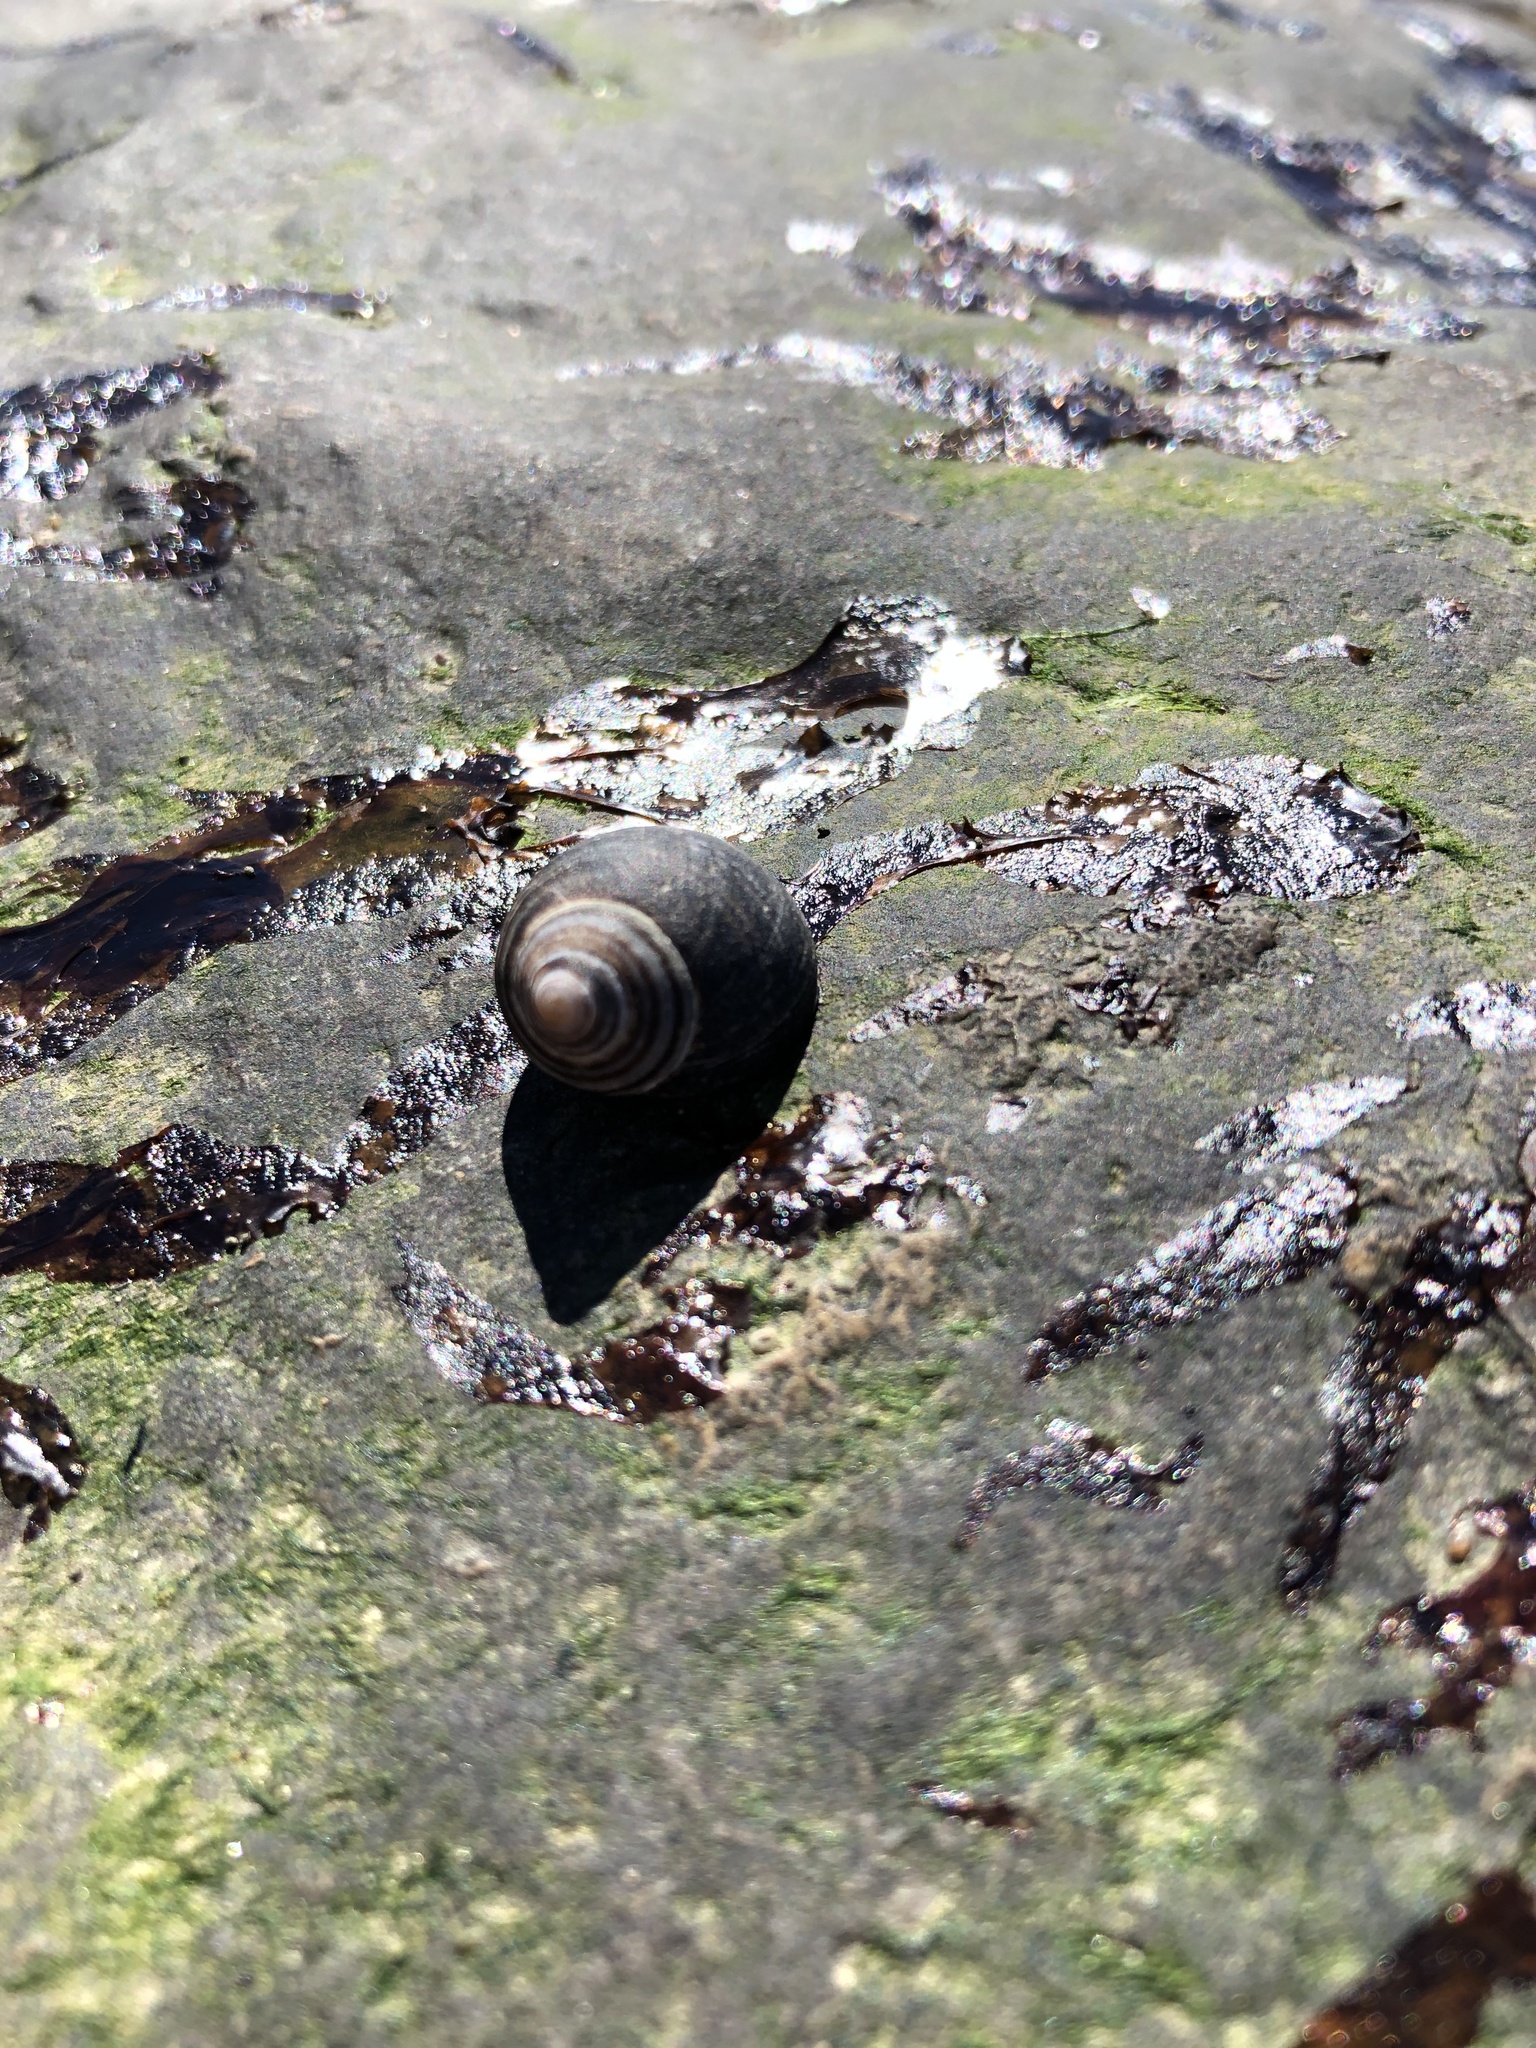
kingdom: Animalia
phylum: Mollusca
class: Gastropoda
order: Littorinimorpha
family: Littorinidae
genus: Littorina
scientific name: Littorina littorea
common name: Common periwinkle
